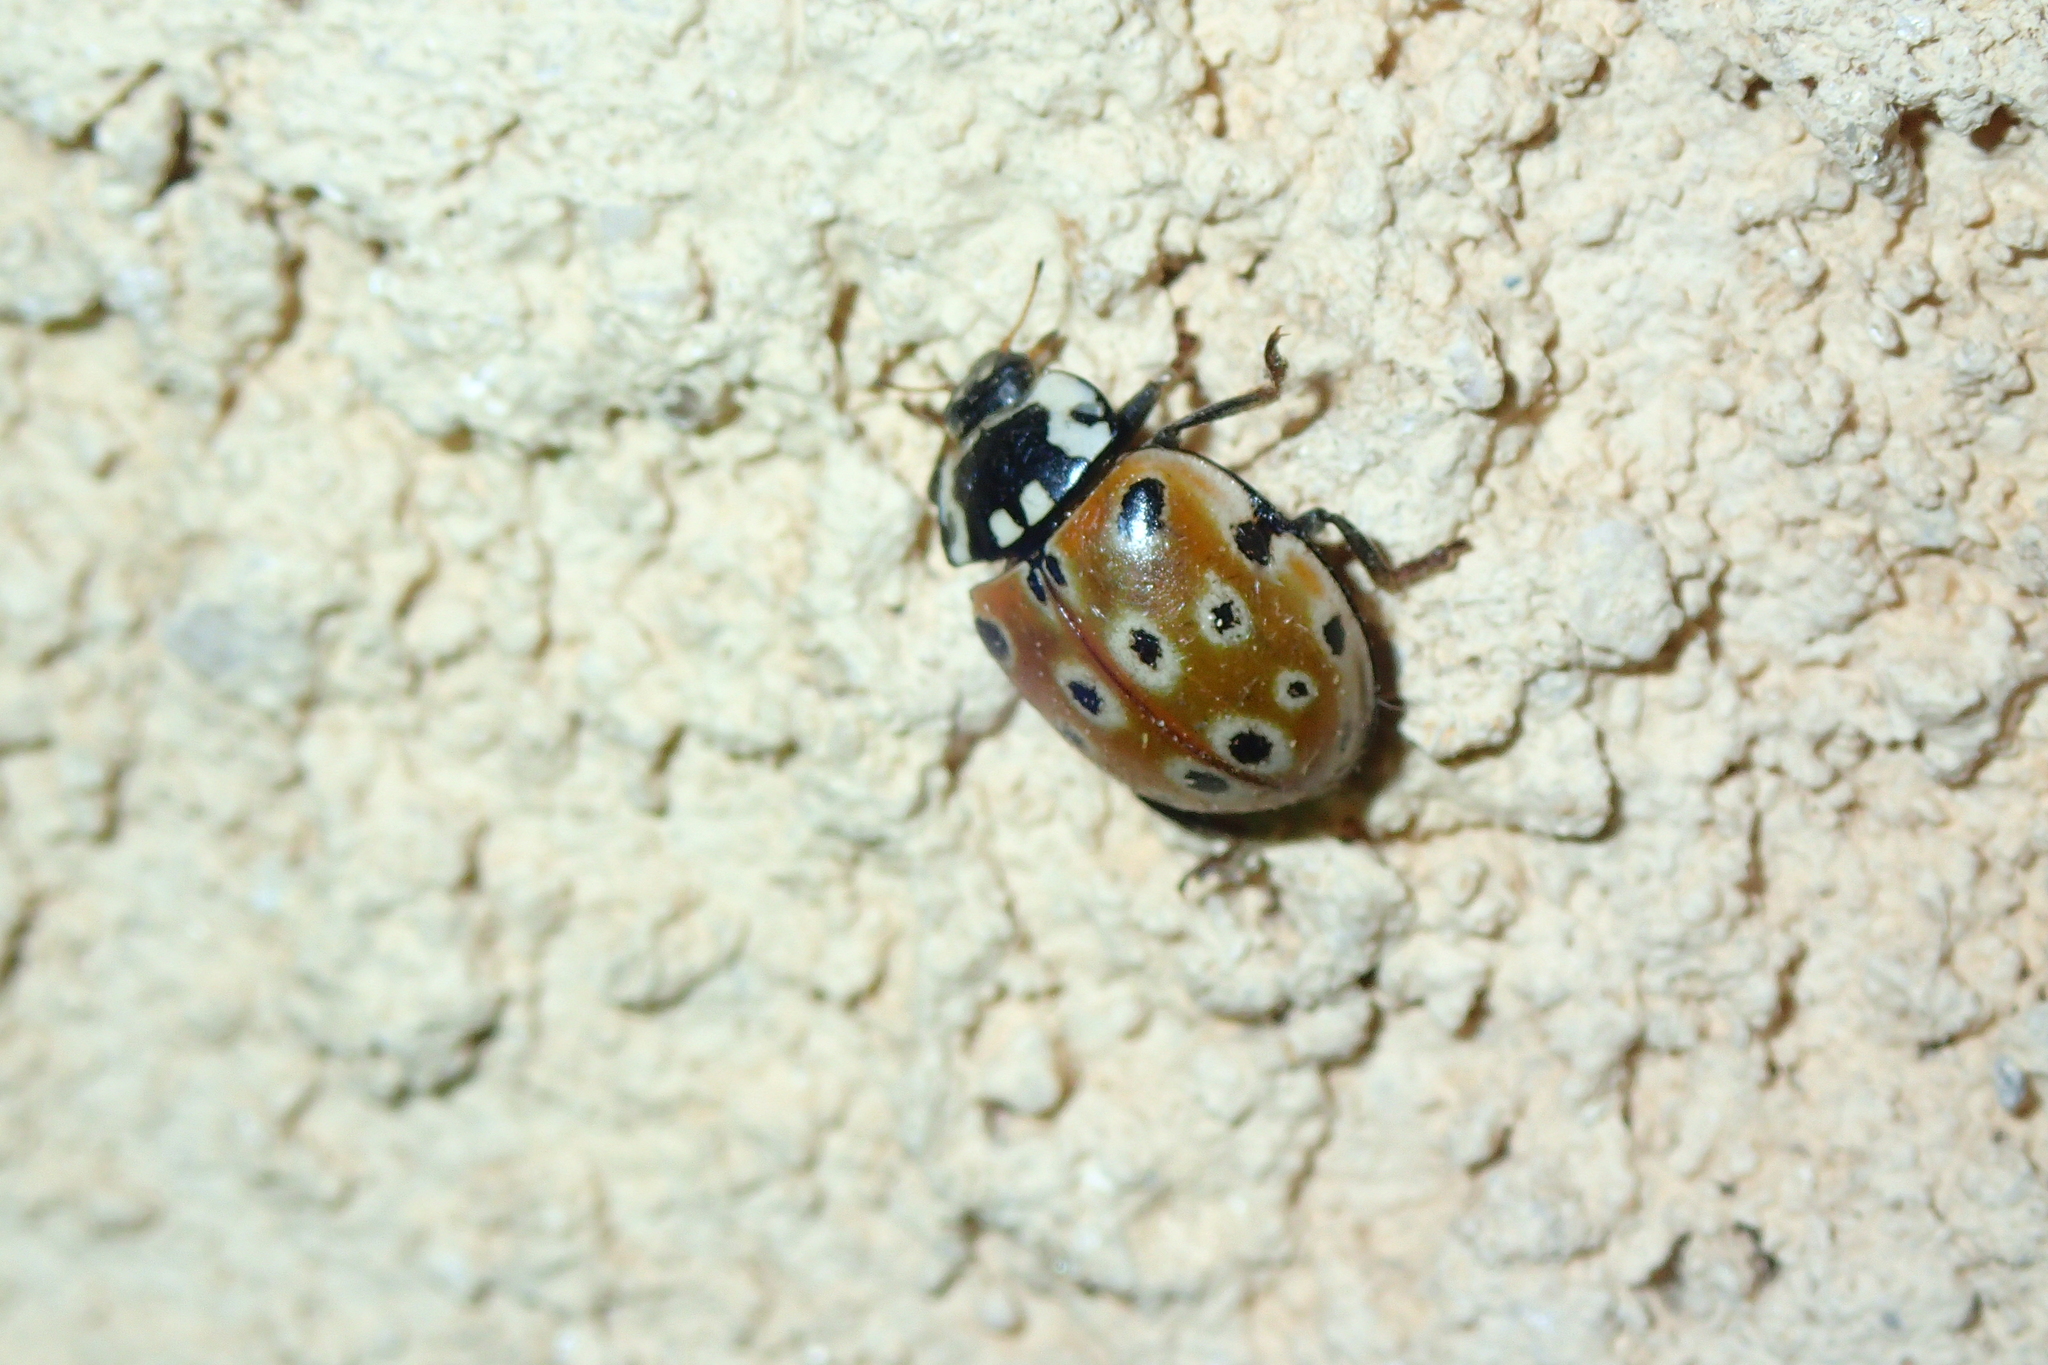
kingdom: Animalia
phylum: Arthropoda
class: Insecta
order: Coleoptera
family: Coccinellidae
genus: Anatis
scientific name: Anatis ocellata
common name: Eyed ladybird
